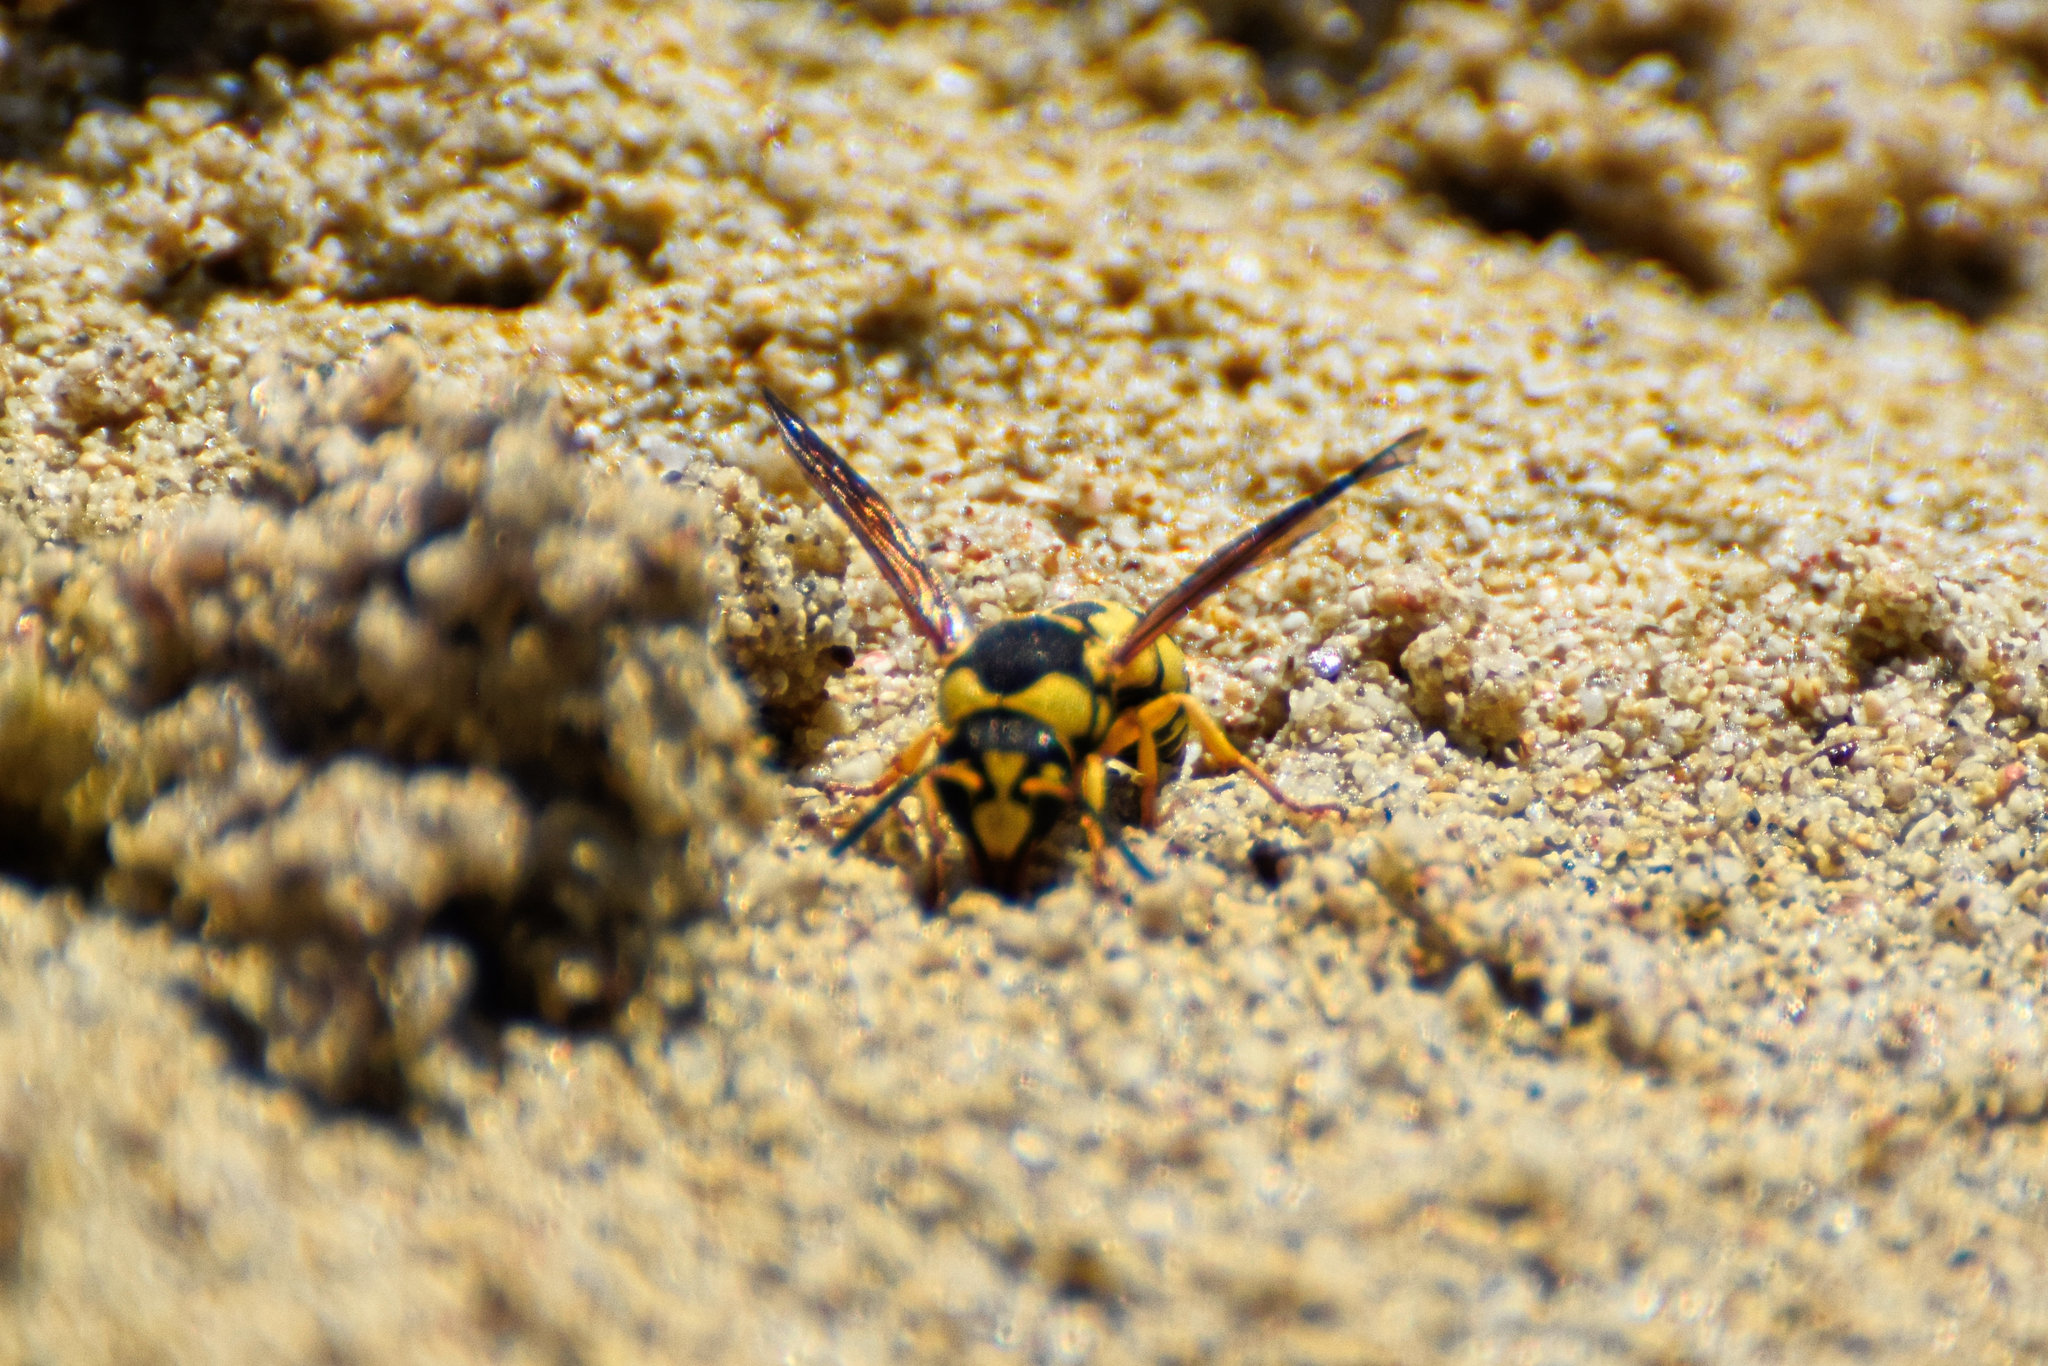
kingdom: Animalia
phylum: Arthropoda
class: Insecta
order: Hymenoptera
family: Eumenidae
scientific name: Eumenidae
